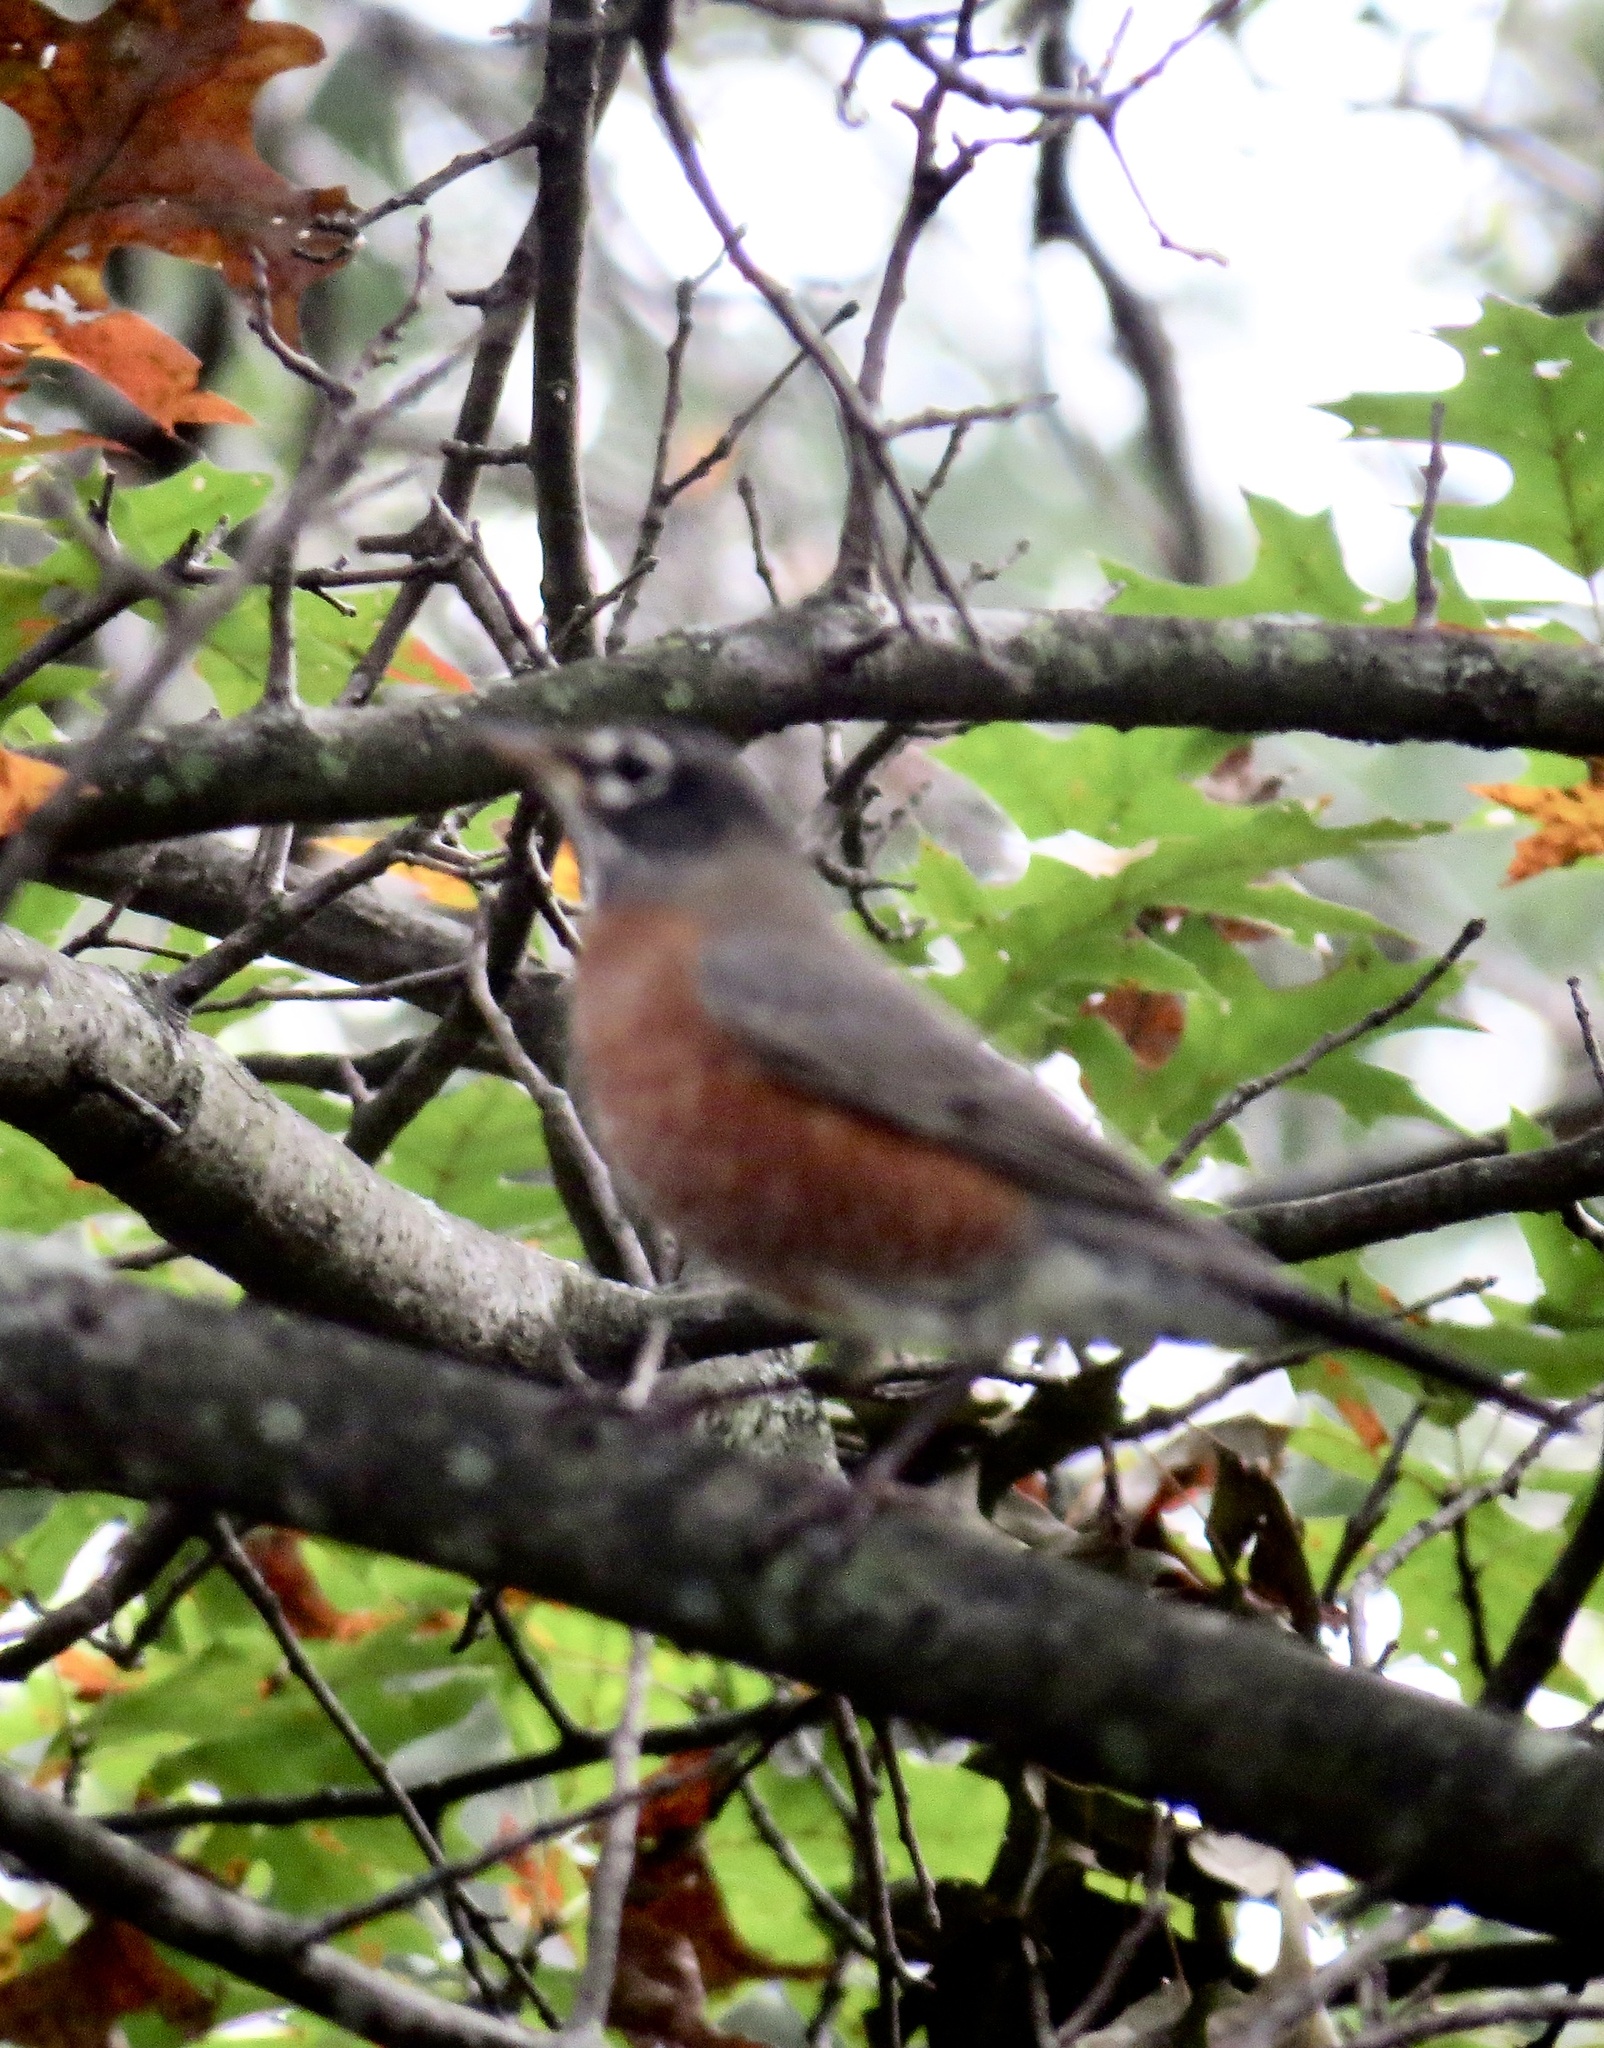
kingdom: Animalia
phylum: Chordata
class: Aves
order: Passeriformes
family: Turdidae
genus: Turdus
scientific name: Turdus migratorius
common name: American robin
